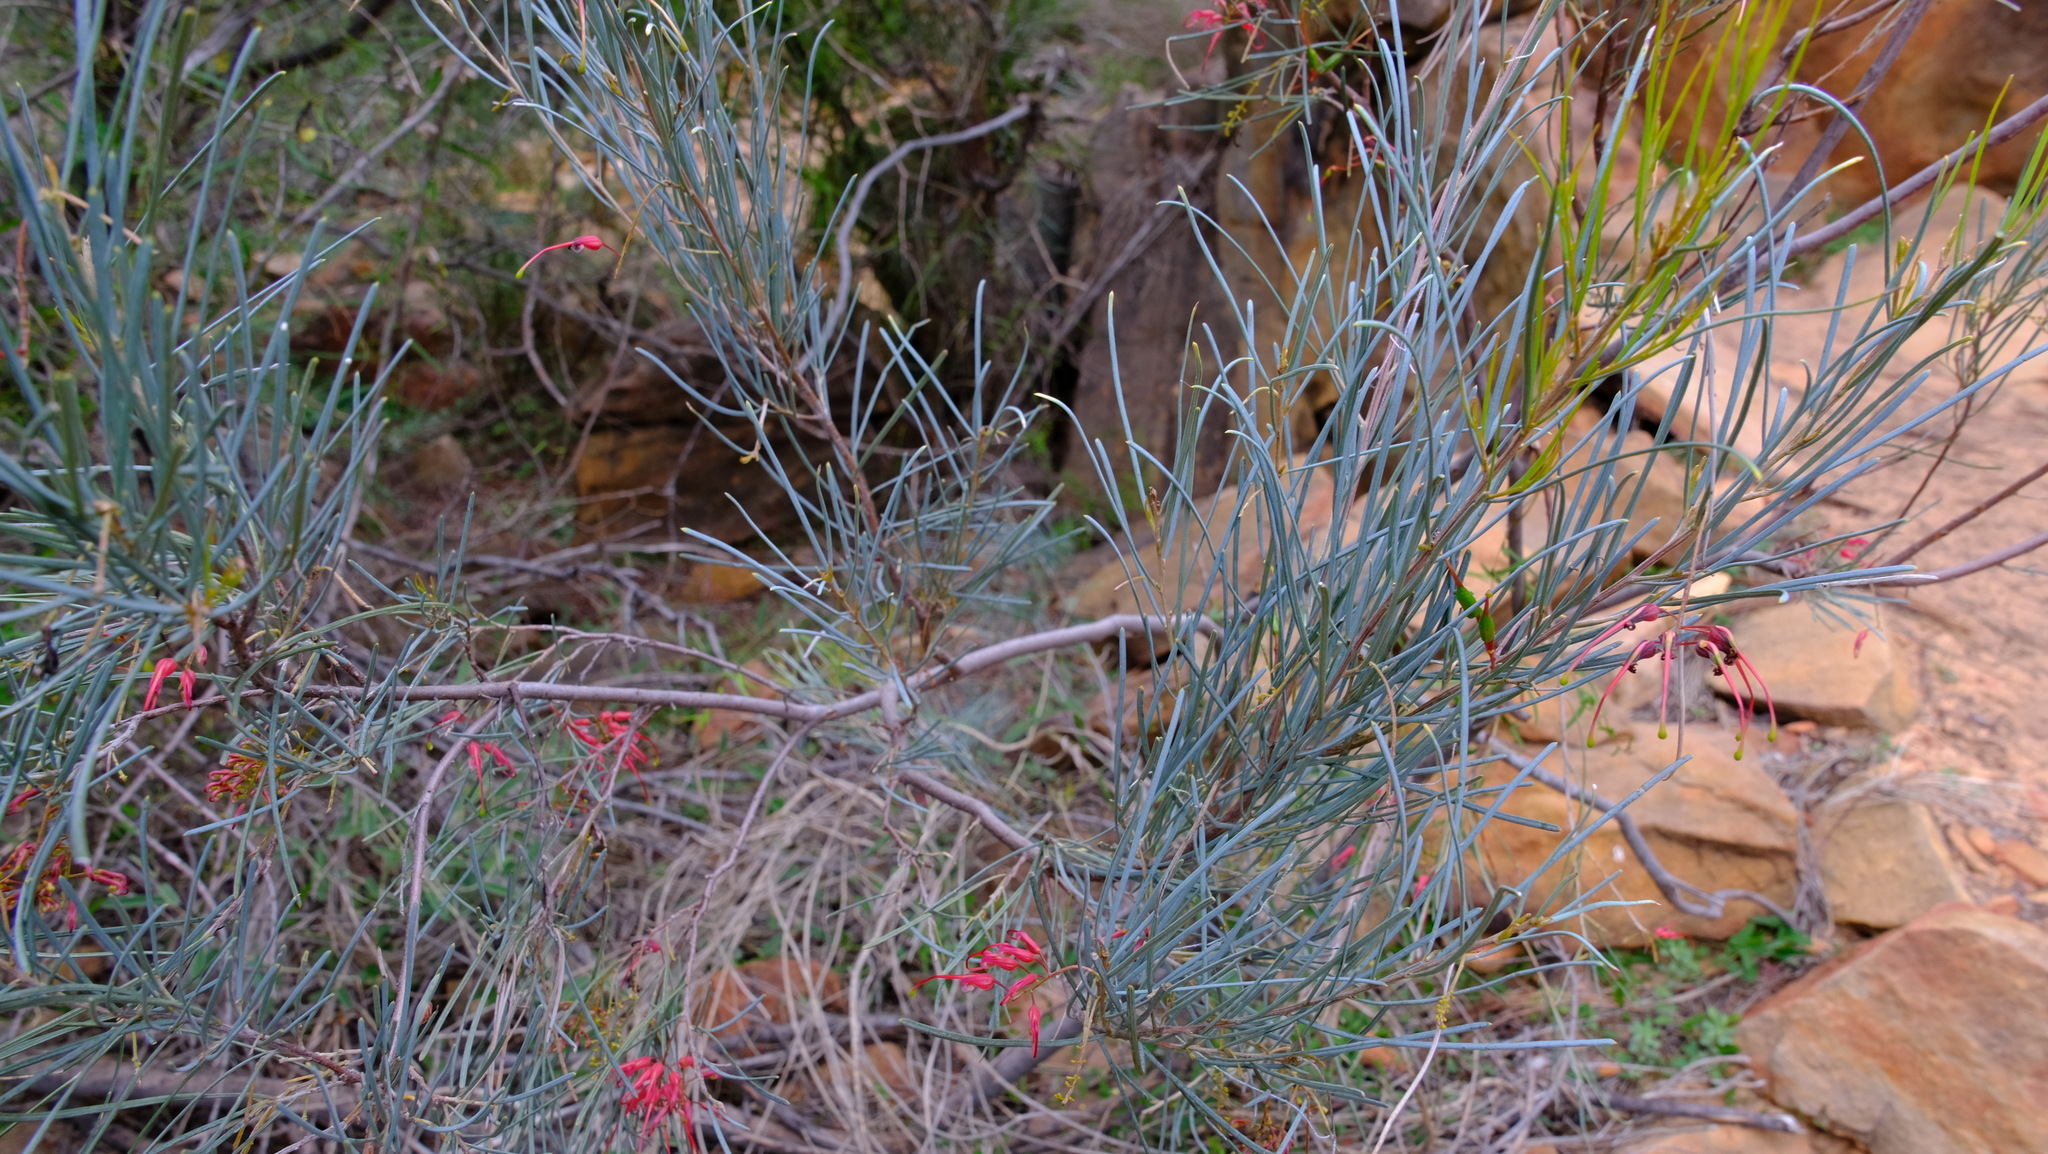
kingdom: Plantae
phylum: Tracheophyta
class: Magnoliopsida
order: Proteales
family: Proteaceae
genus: Grevillea
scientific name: Grevillea pinaster
